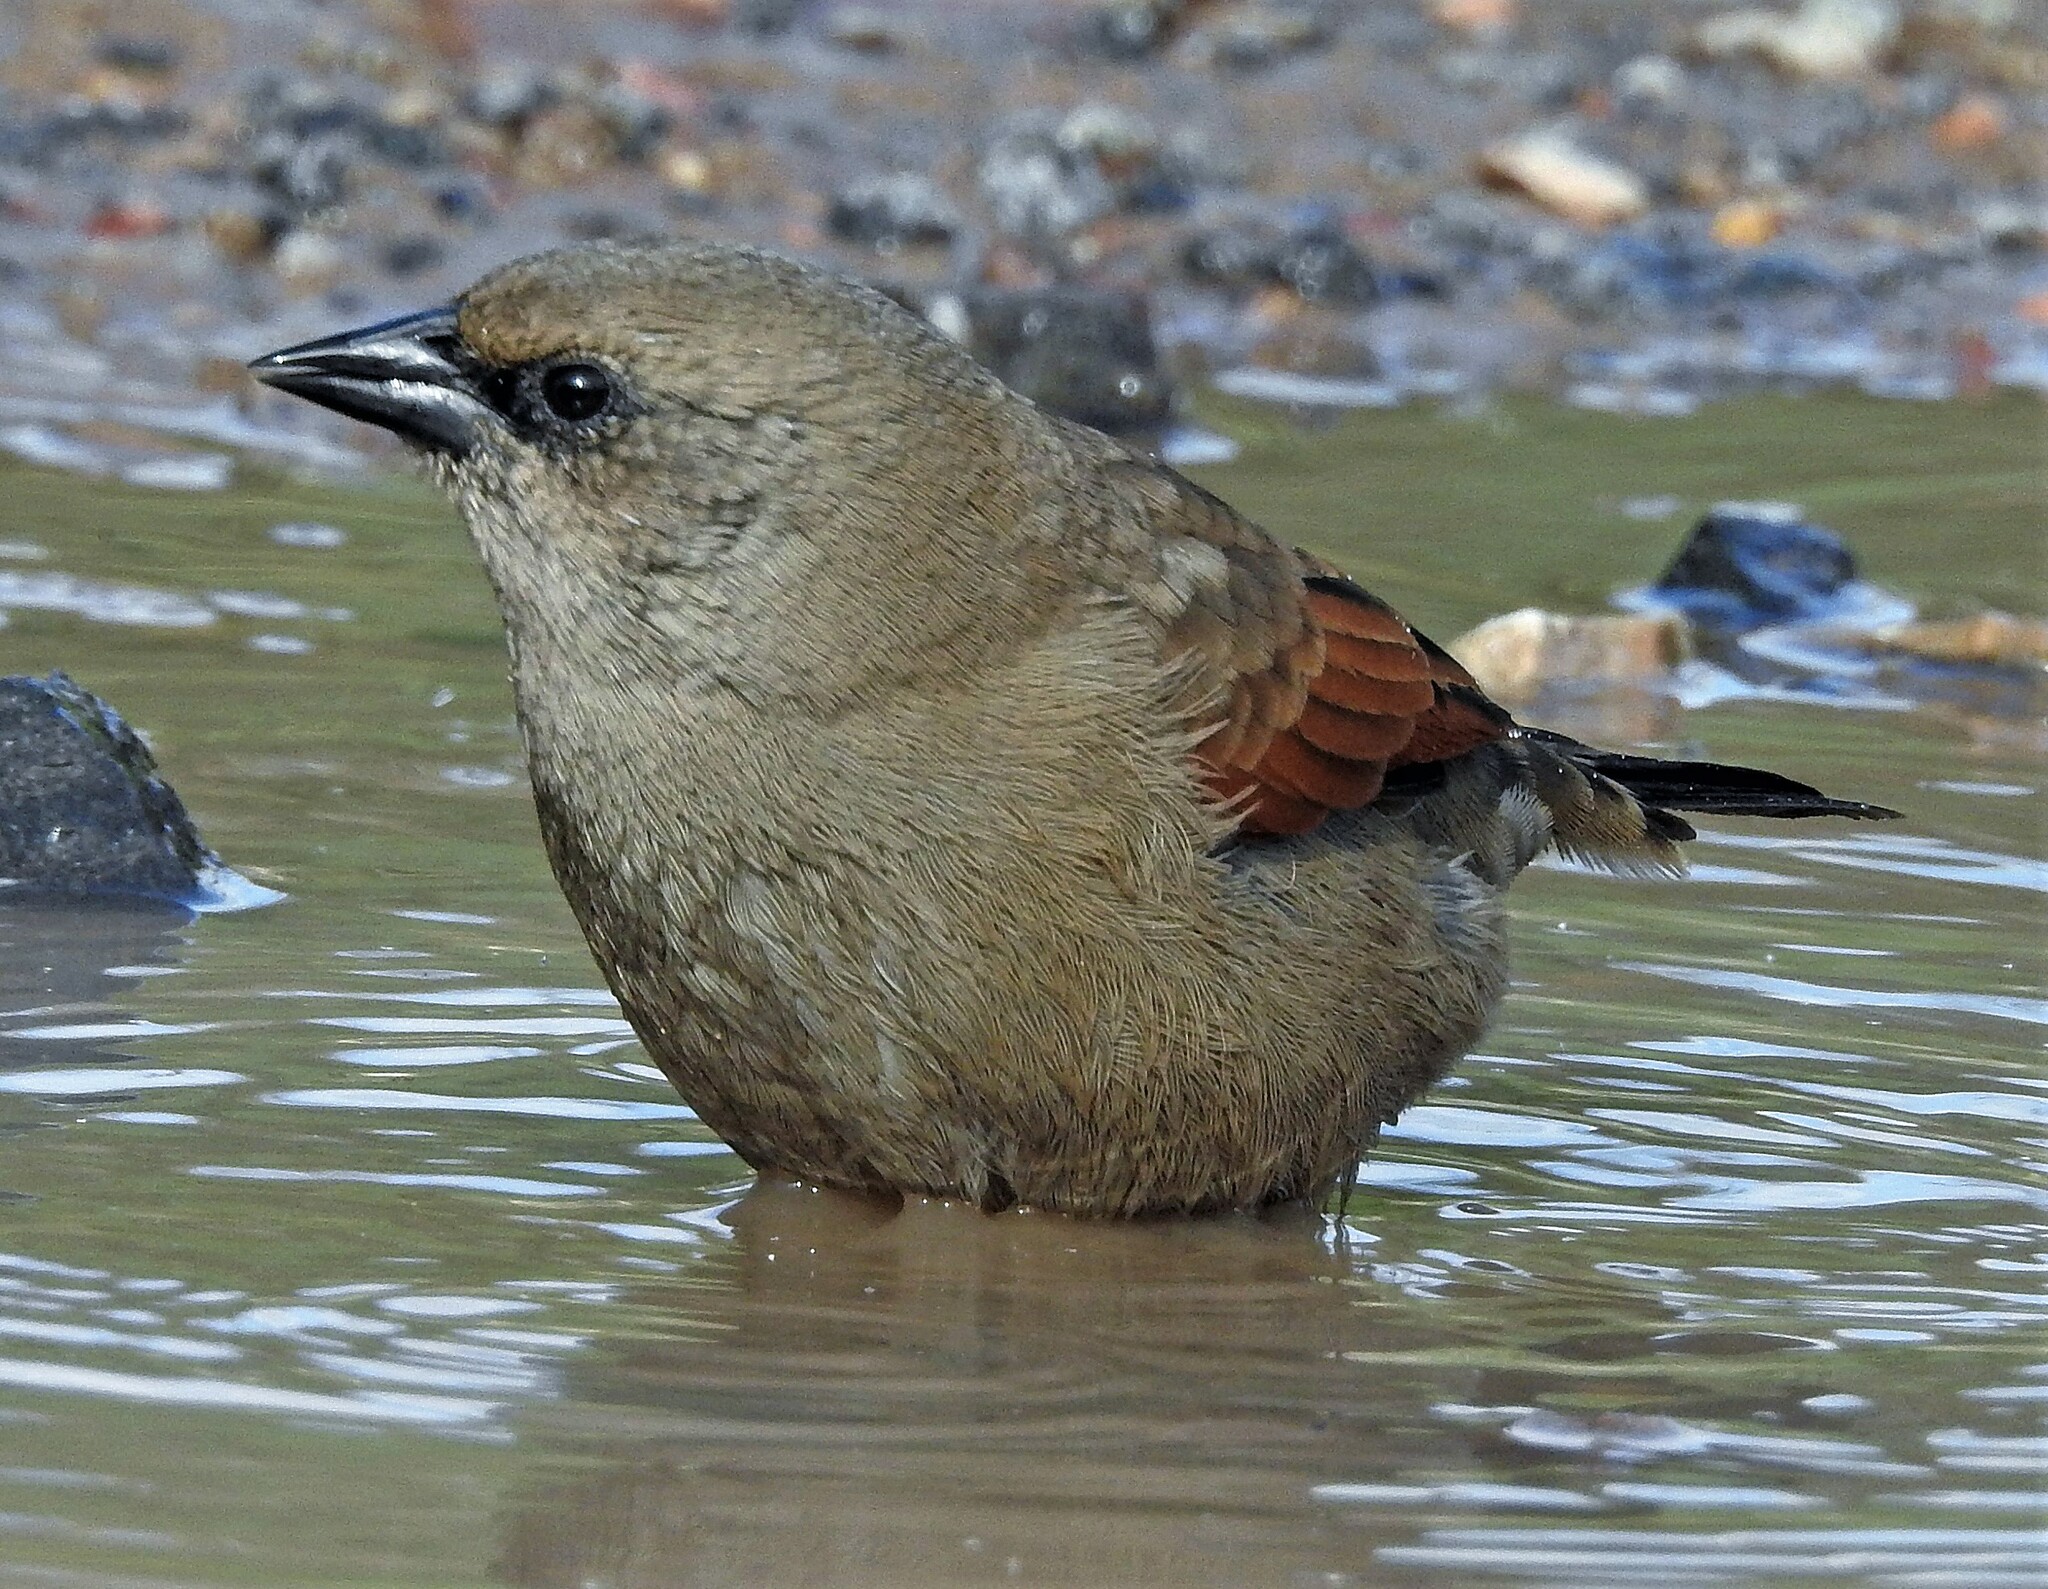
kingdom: Animalia
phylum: Chordata
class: Aves
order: Passeriformes
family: Icteridae
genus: Agelaioides
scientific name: Agelaioides badius
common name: Baywing
